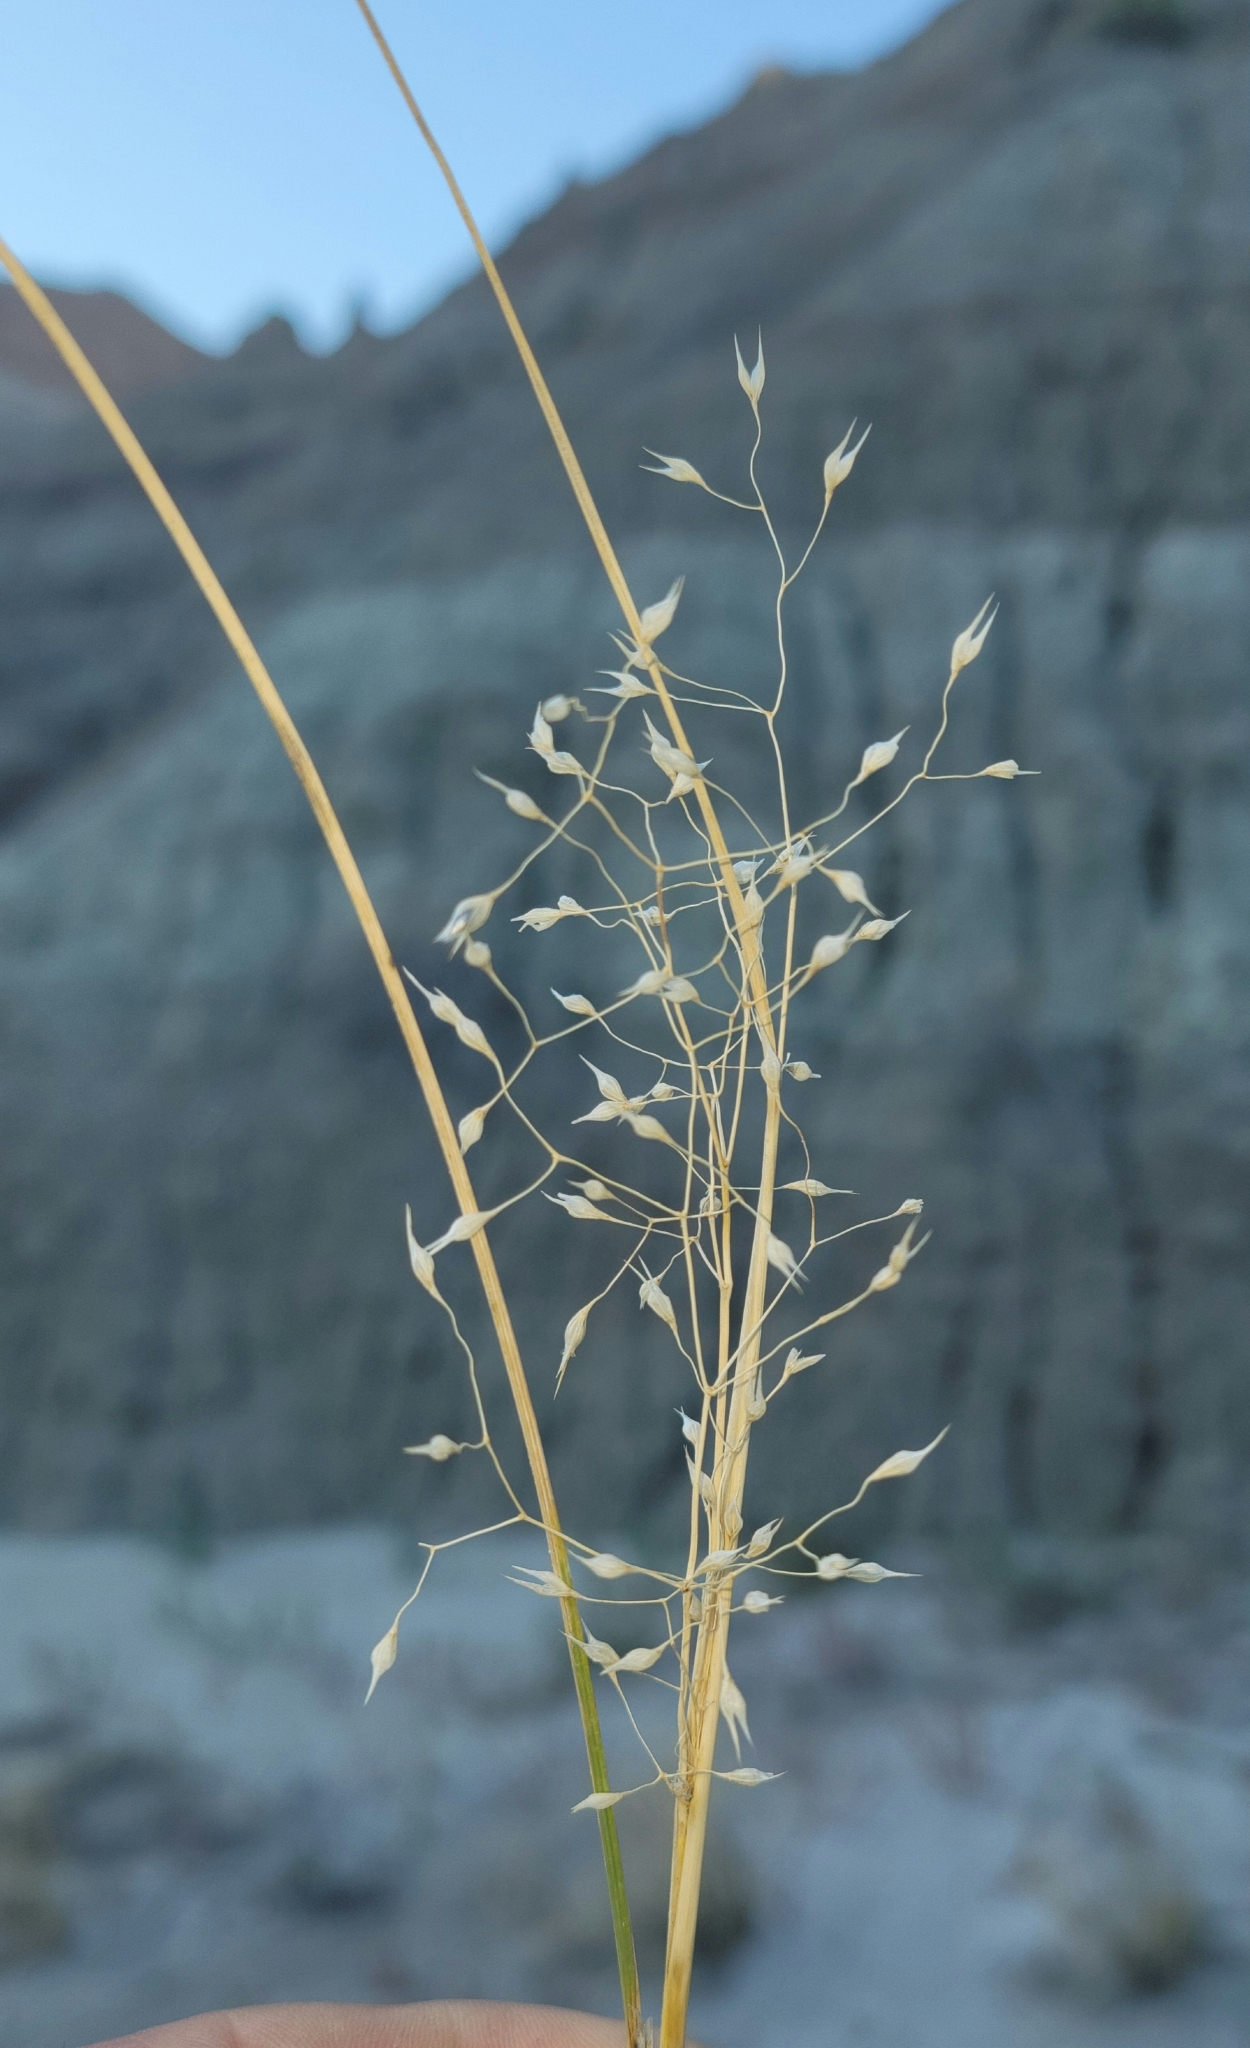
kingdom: Plantae
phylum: Tracheophyta
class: Liliopsida
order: Poales
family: Poaceae
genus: Eriocoma
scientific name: Eriocoma hymenoides
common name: Indian mountain ricegrass
